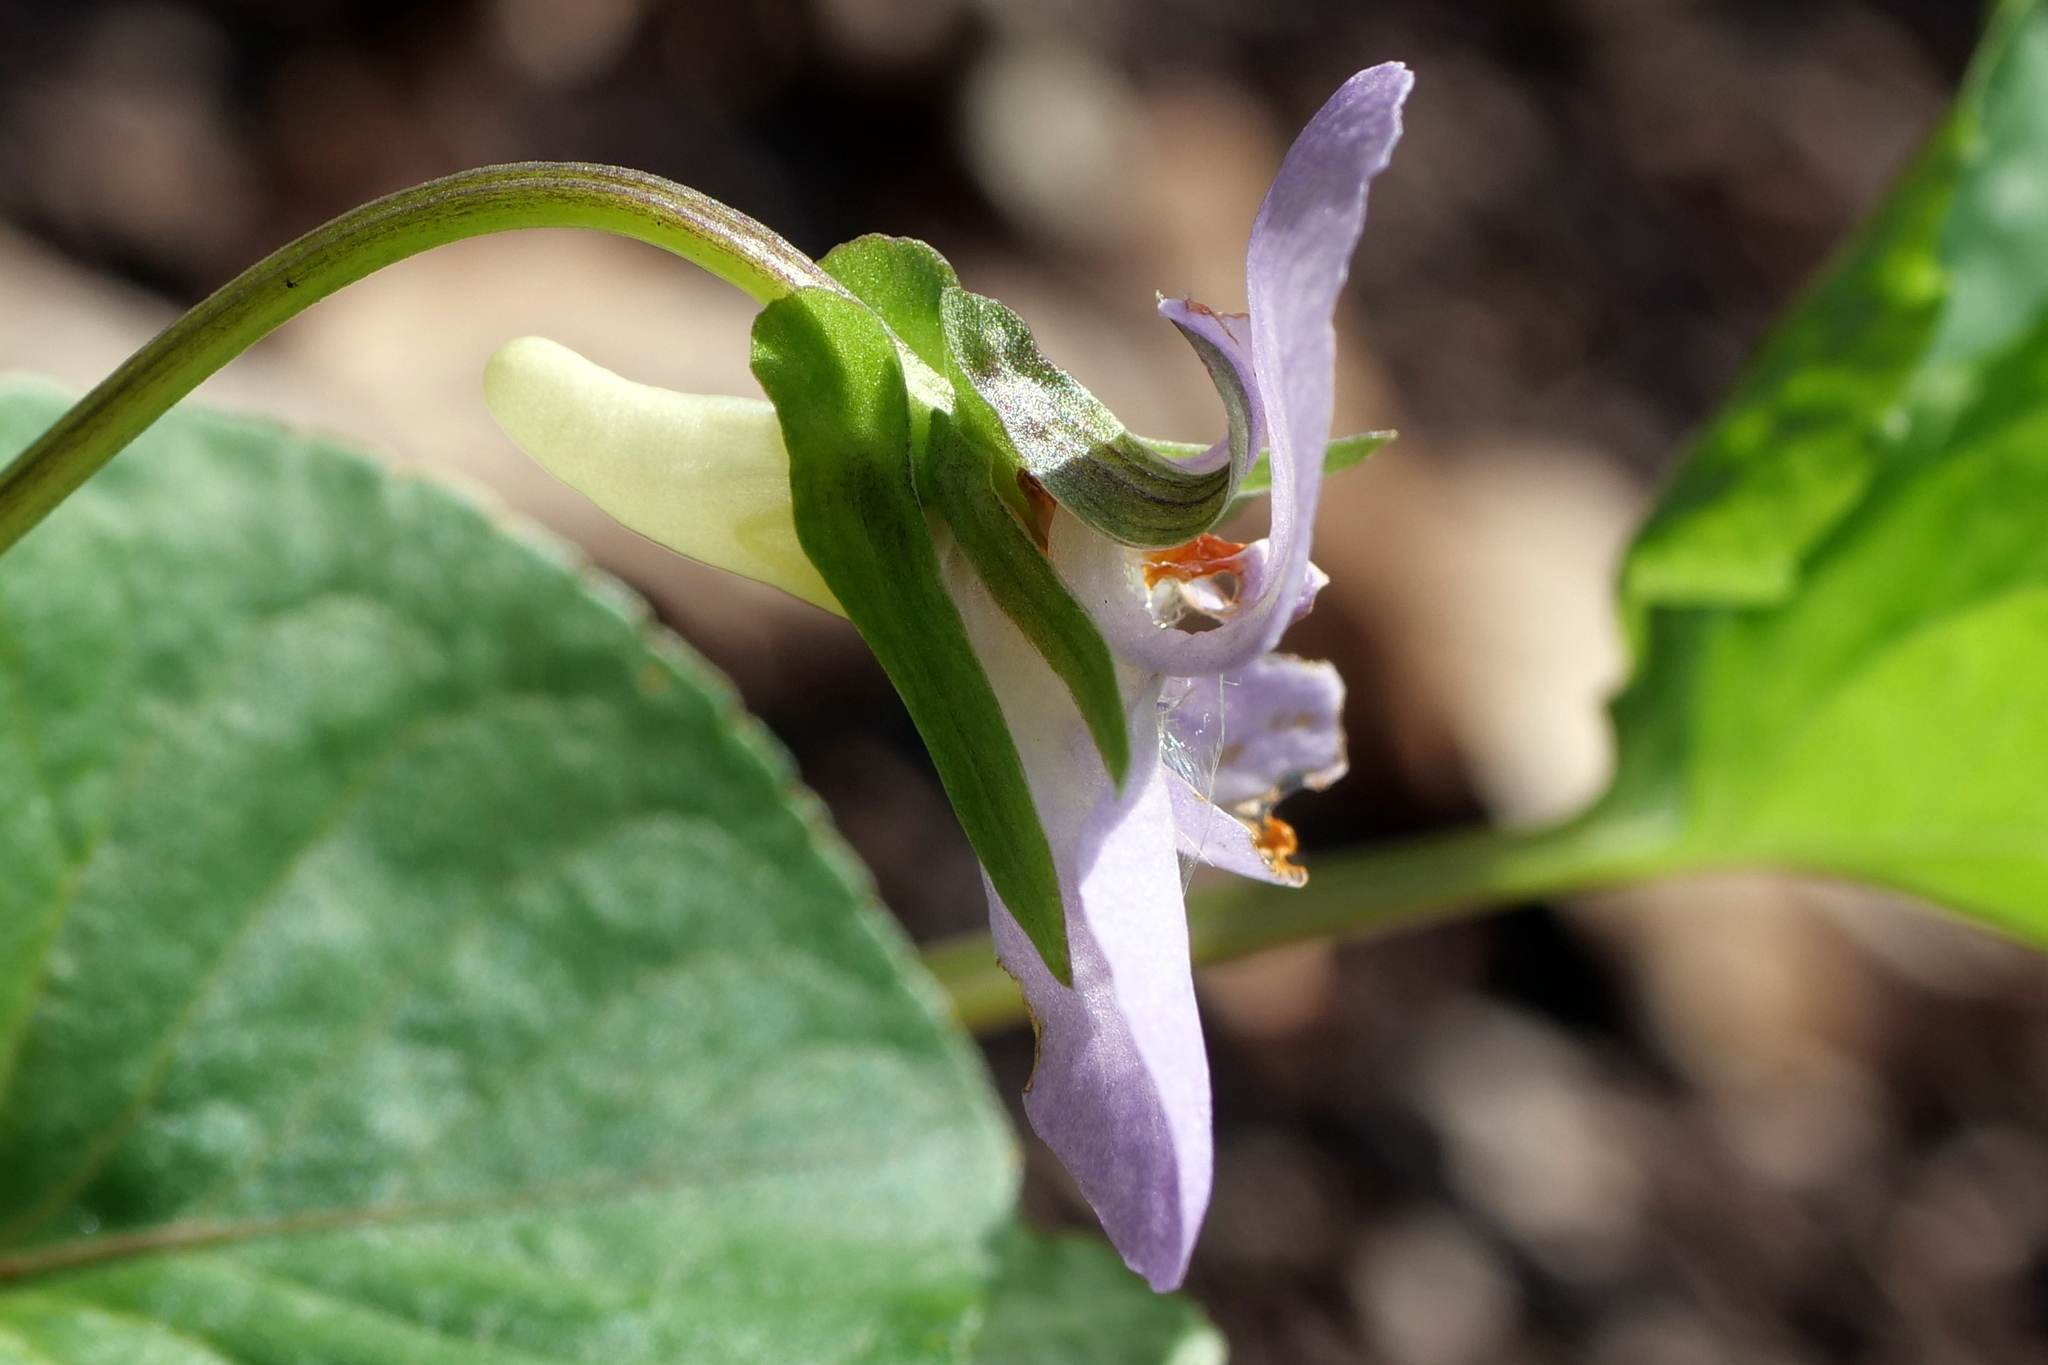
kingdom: Plantae
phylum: Tracheophyta
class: Magnoliopsida
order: Malpighiales
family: Violaceae
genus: Viola
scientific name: Viola mirabilis
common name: Wonder violet
